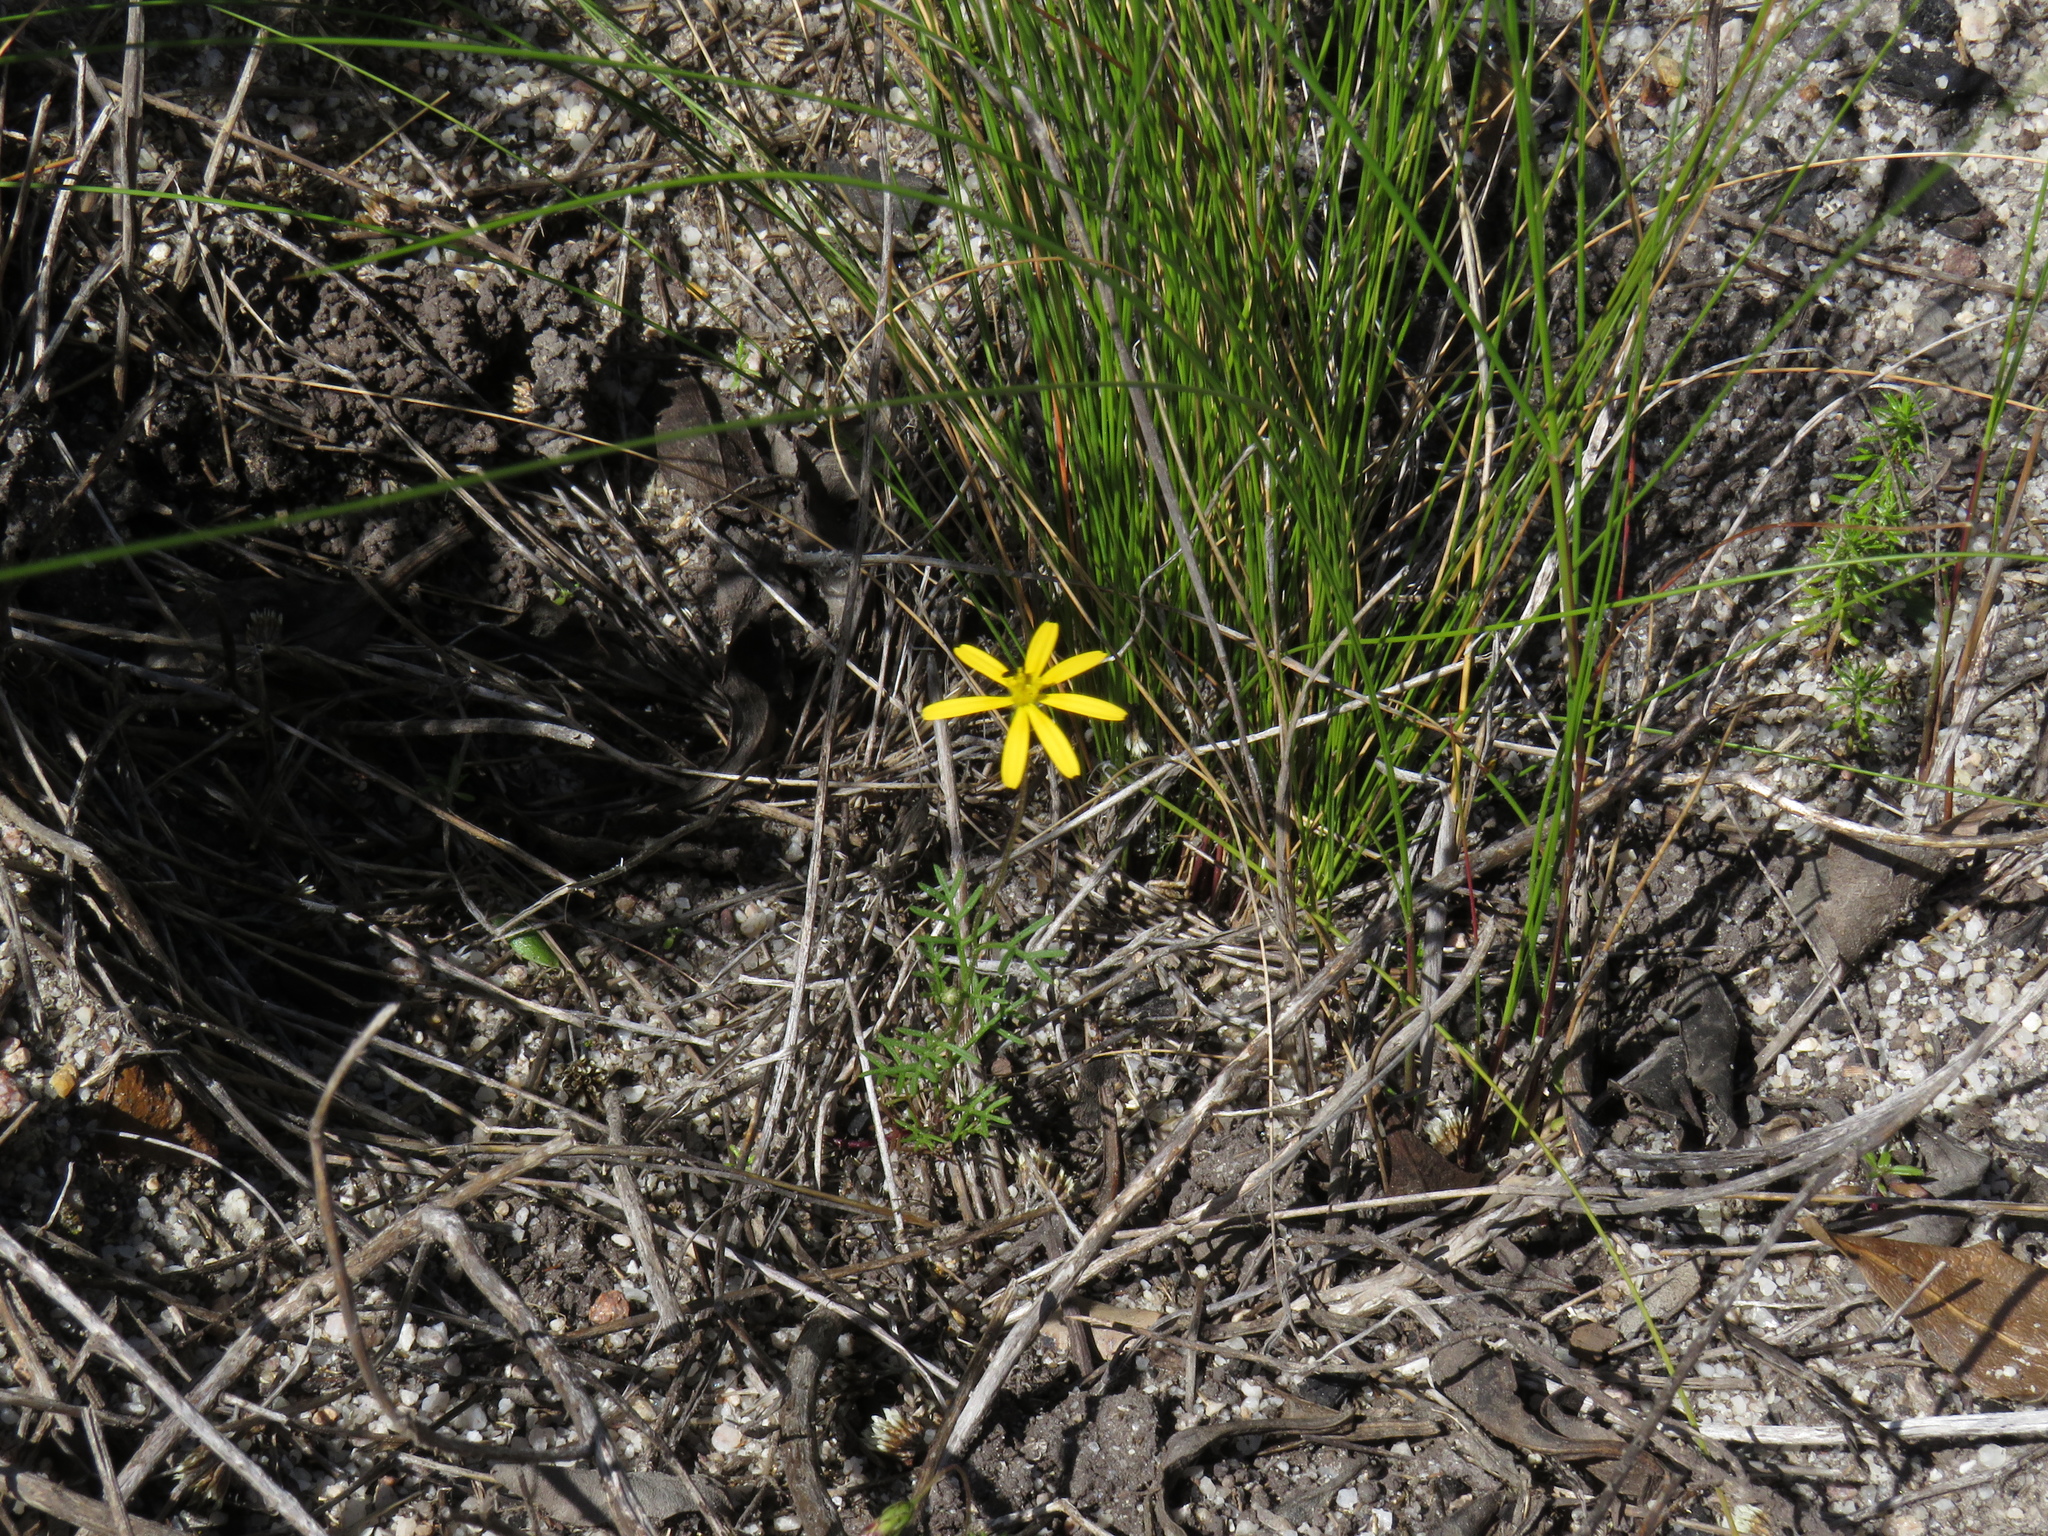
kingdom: Plantae
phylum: Tracheophyta
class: Magnoliopsida
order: Asterales
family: Asteraceae
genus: Ursinia
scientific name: Ursinia anthemoides
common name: Ursinia
